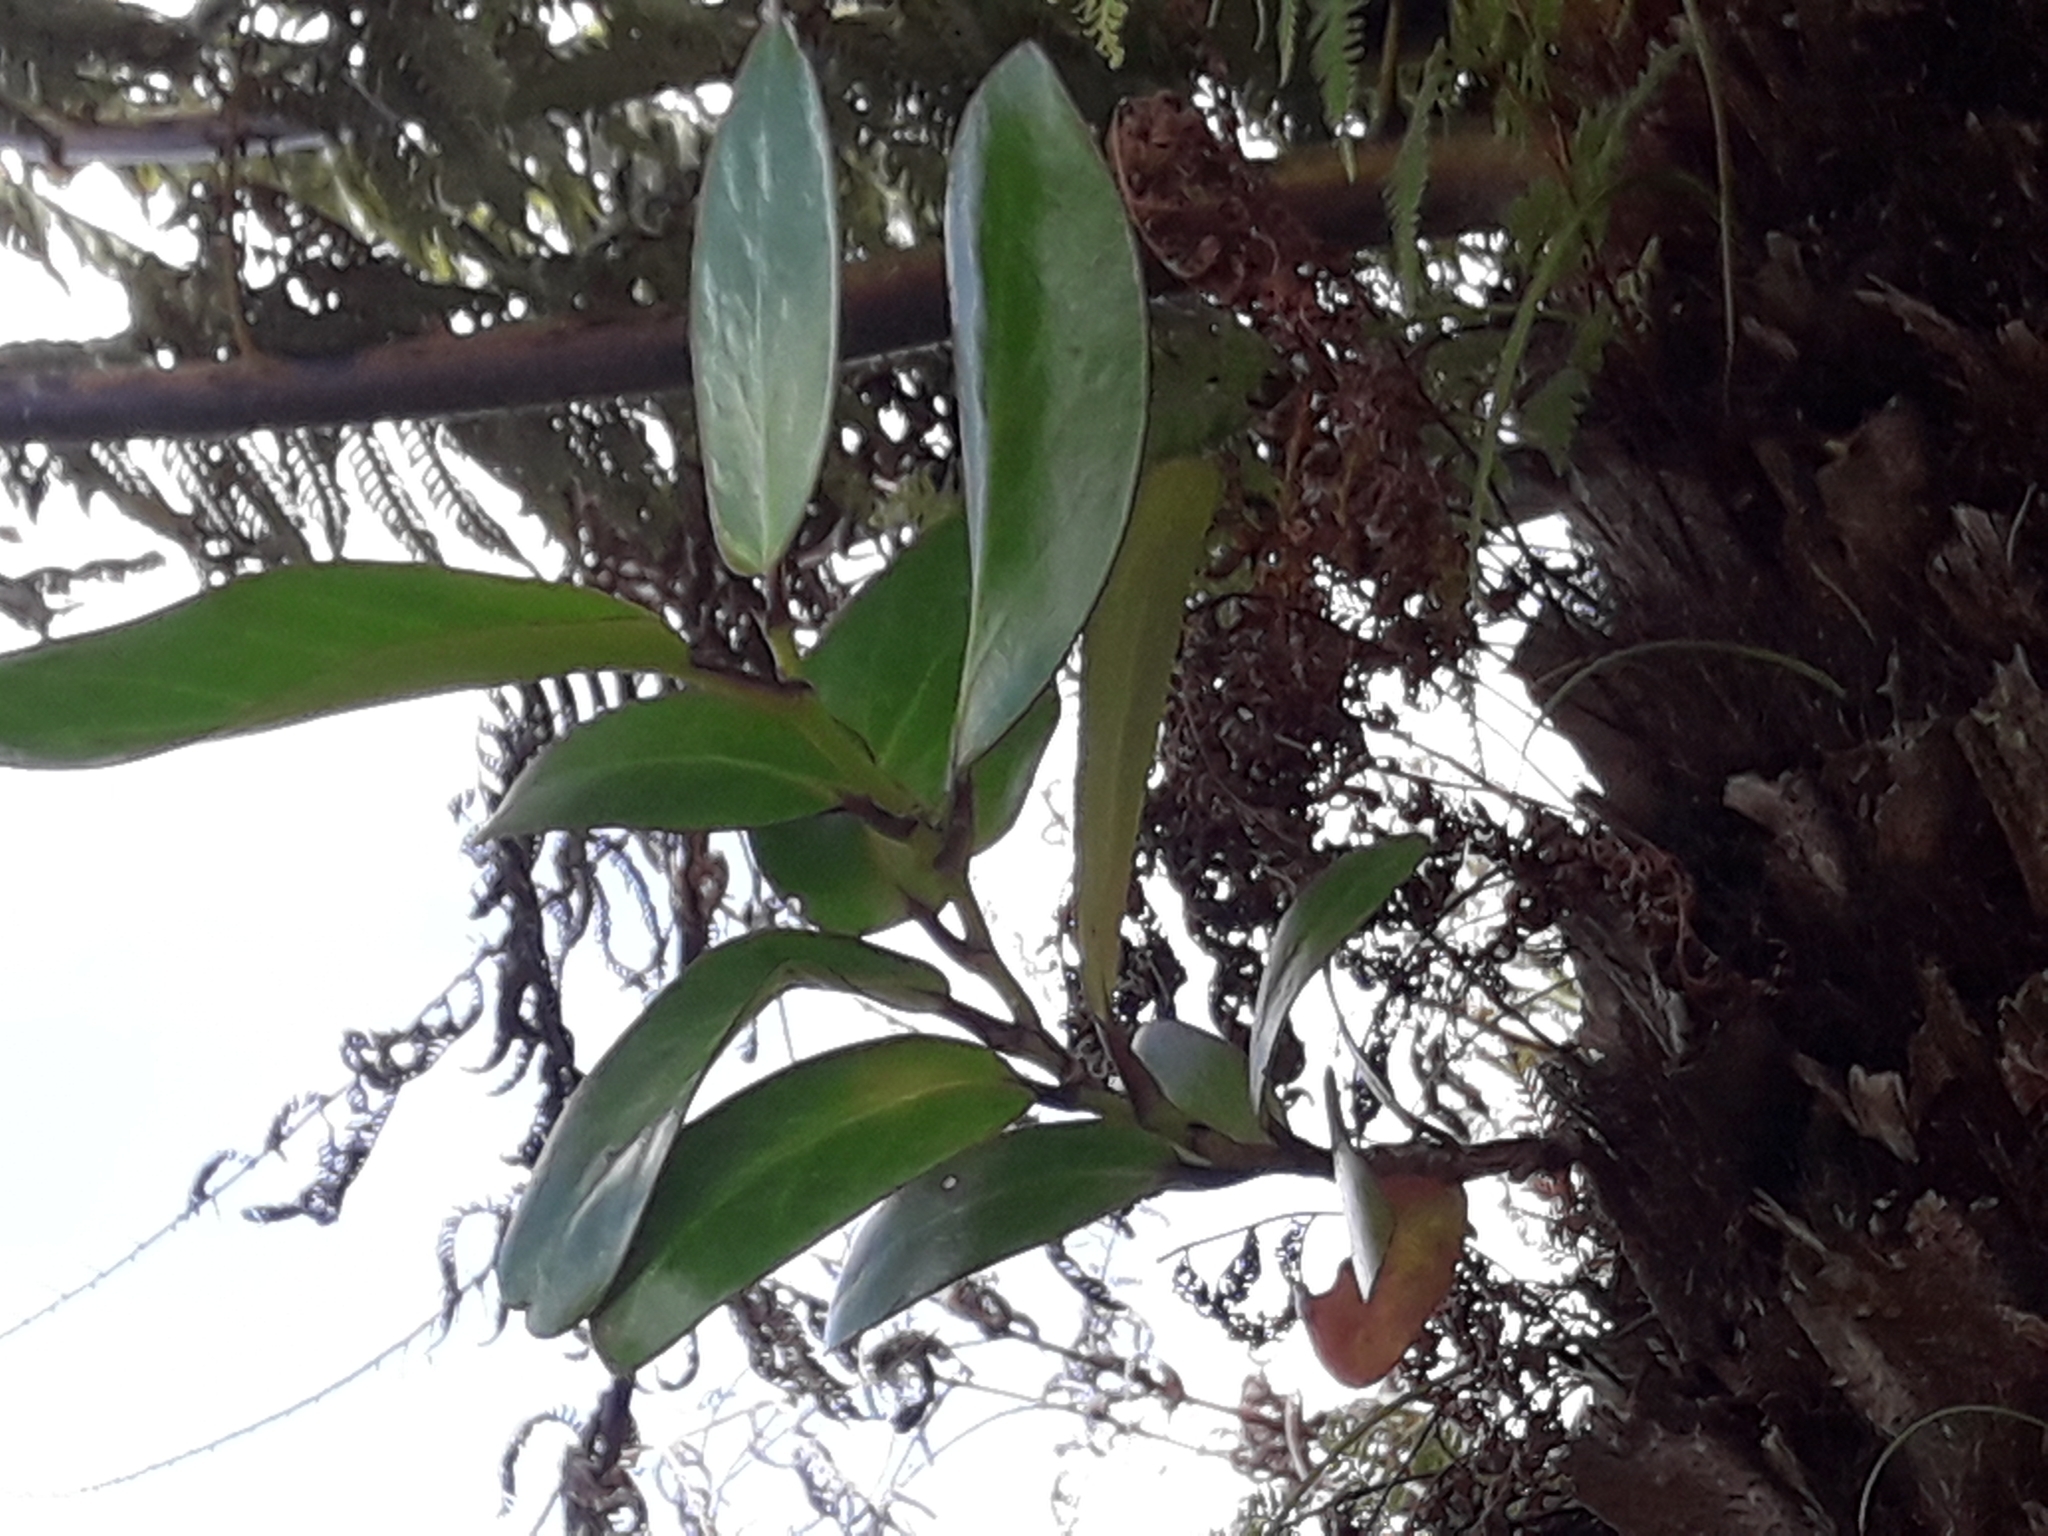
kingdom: Plantae
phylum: Tracheophyta
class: Magnoliopsida
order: Apiales
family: Griseliniaceae
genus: Griselinia
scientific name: Griselinia lucida
